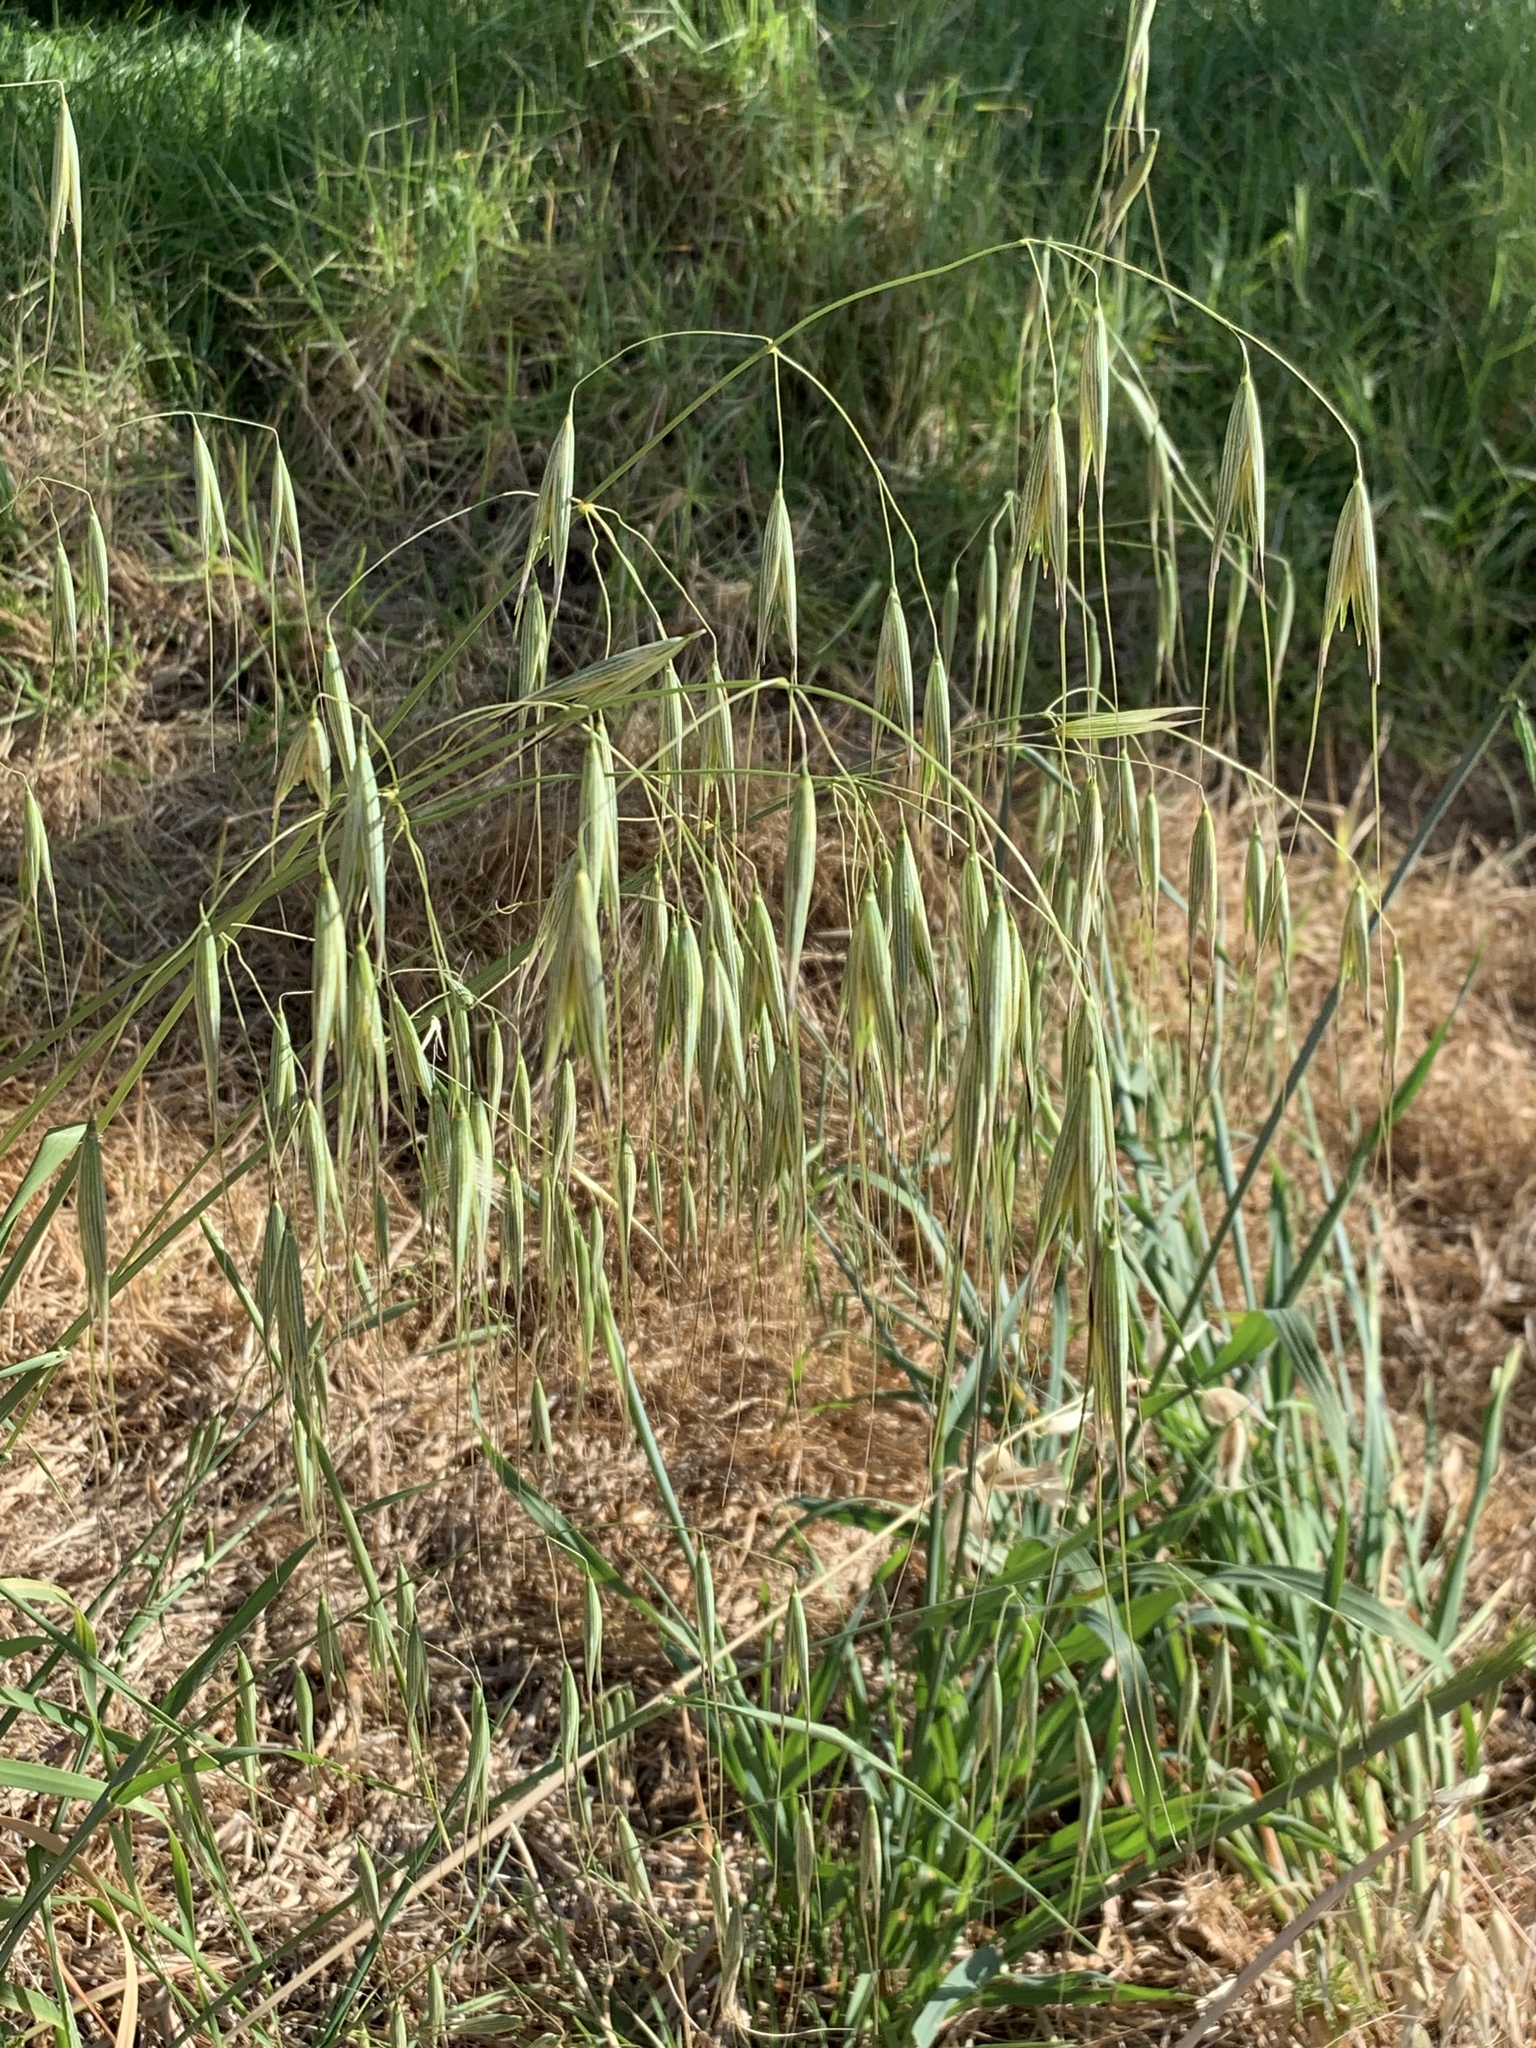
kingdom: Plantae
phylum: Tracheophyta
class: Liliopsida
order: Poales
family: Poaceae
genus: Avena
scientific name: Avena fatua
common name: Wild oat
